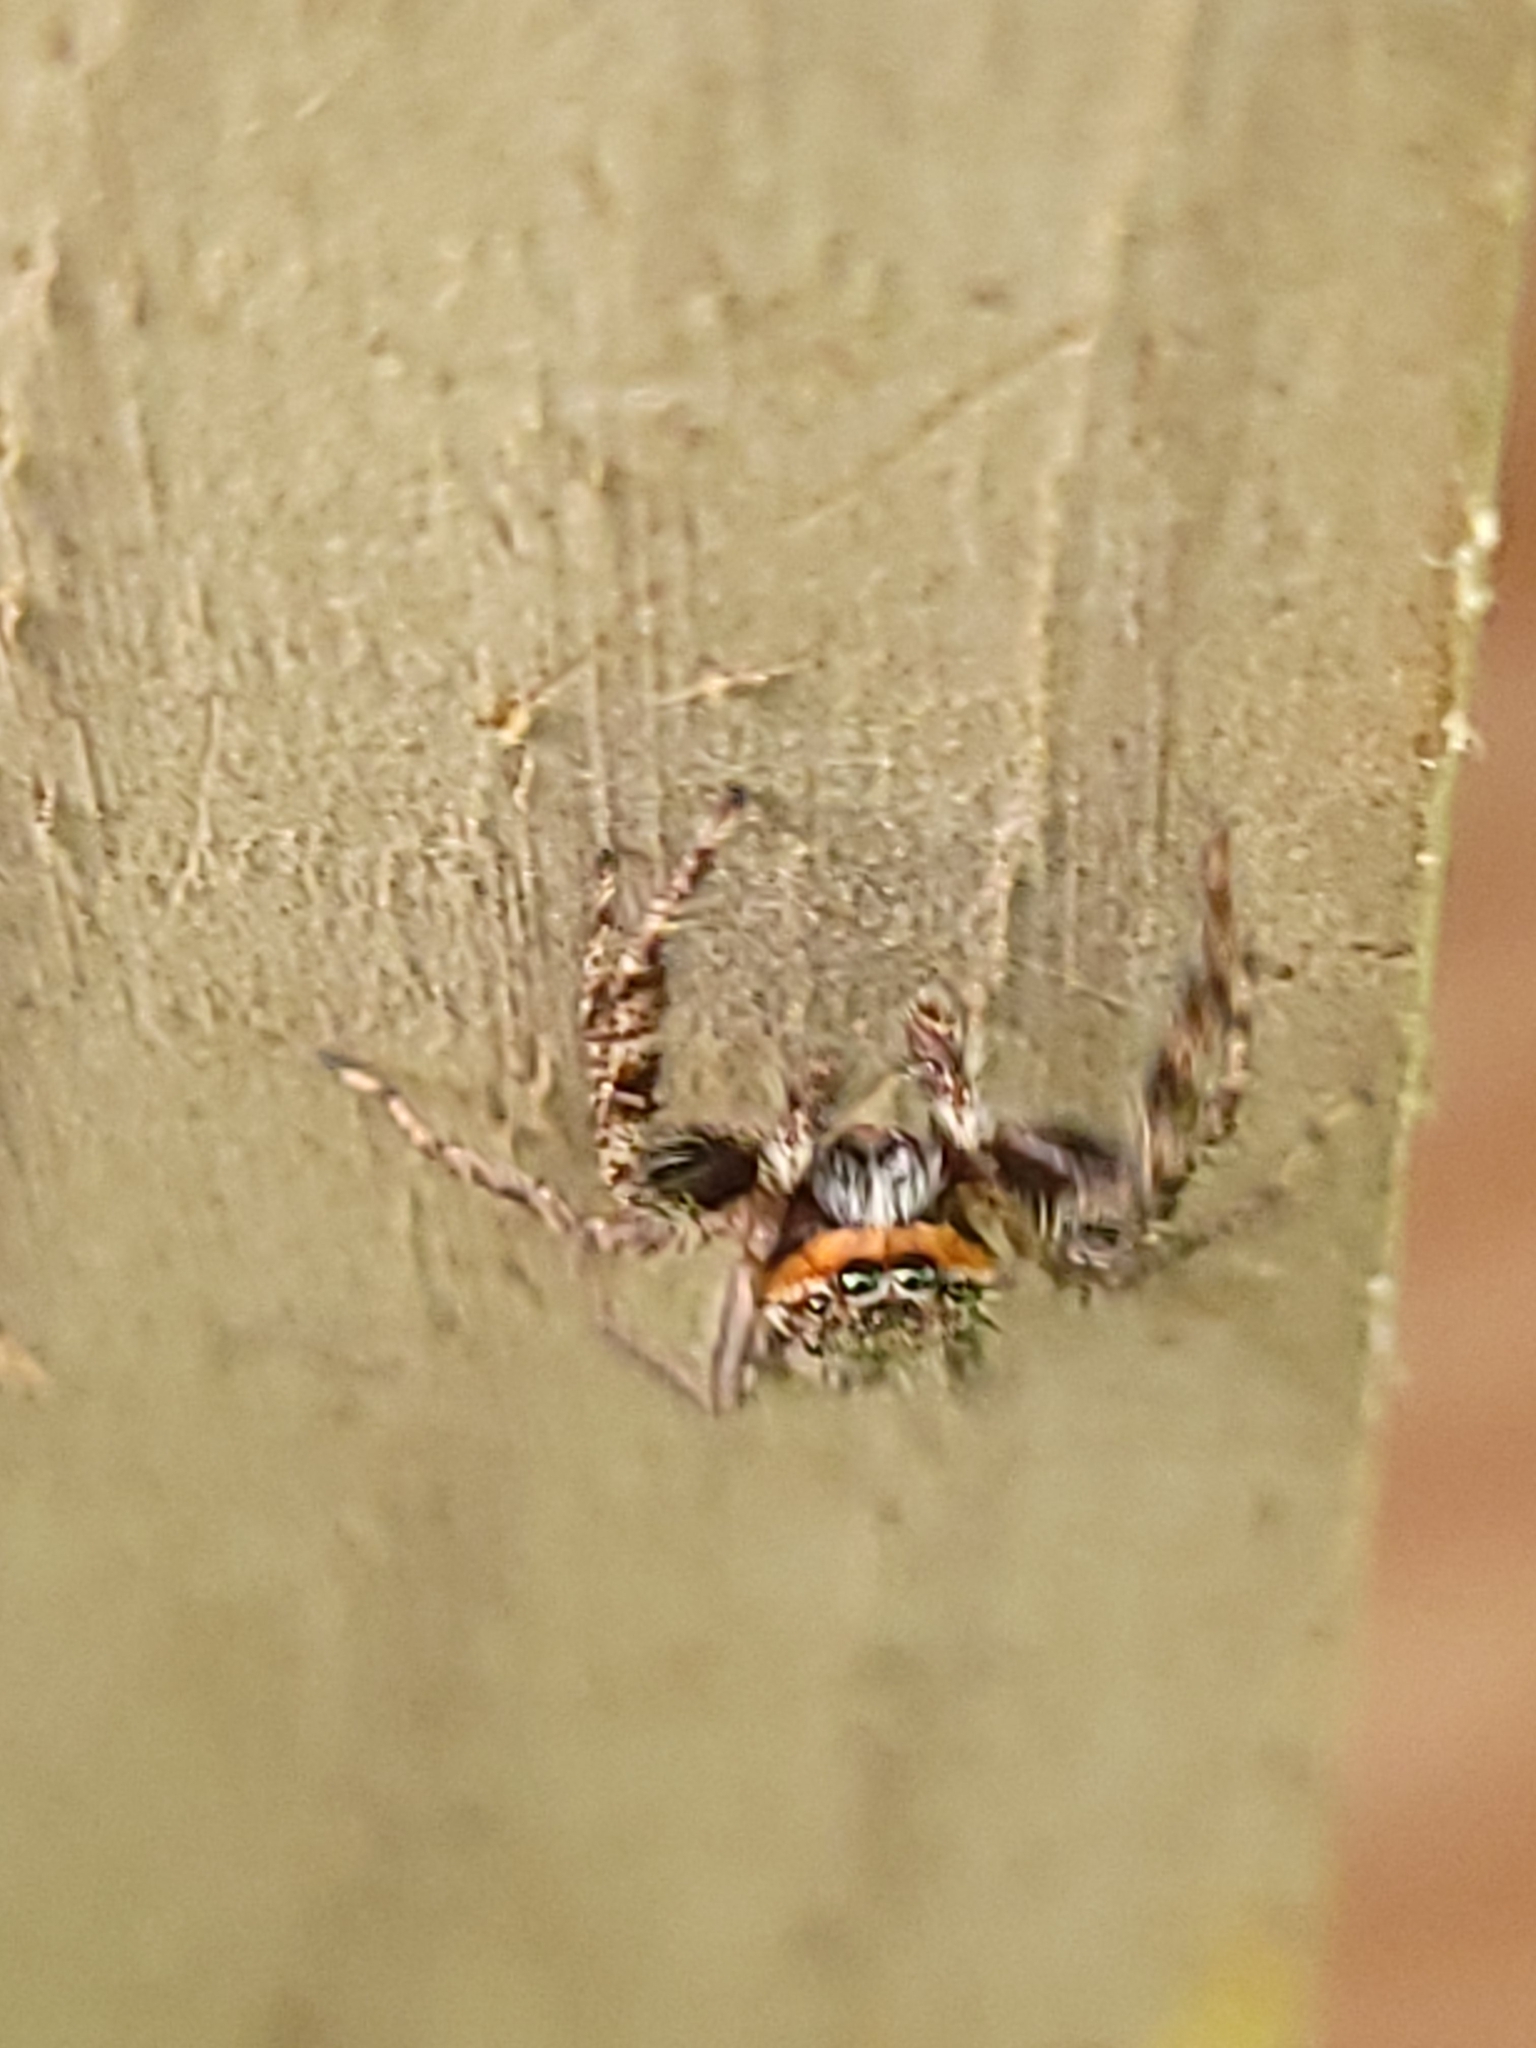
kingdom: Animalia
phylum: Arthropoda
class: Arachnida
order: Araneae
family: Salticidae
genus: Platycryptus
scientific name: Platycryptus undatus
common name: Tan jumping spider
